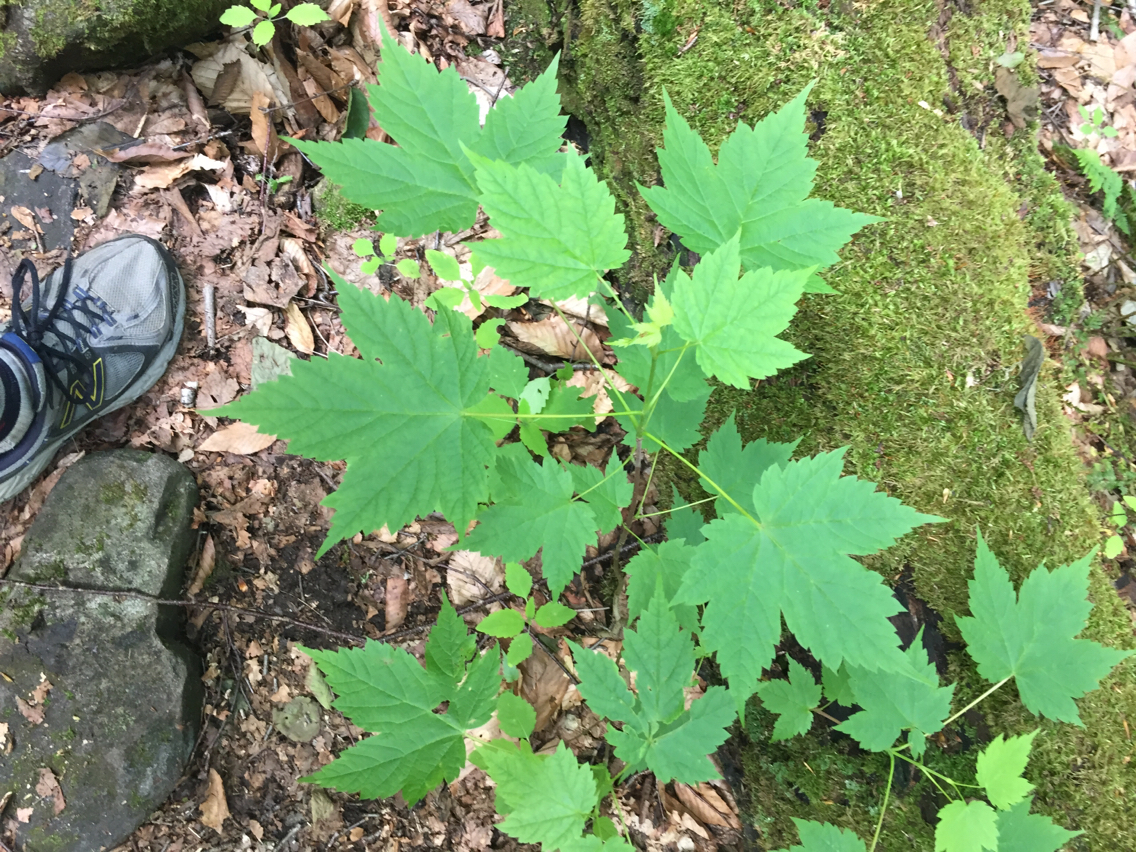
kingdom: Plantae
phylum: Tracheophyta
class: Magnoliopsida
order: Sapindales
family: Sapindaceae
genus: Acer
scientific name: Acer spicatum
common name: Mountain maple
